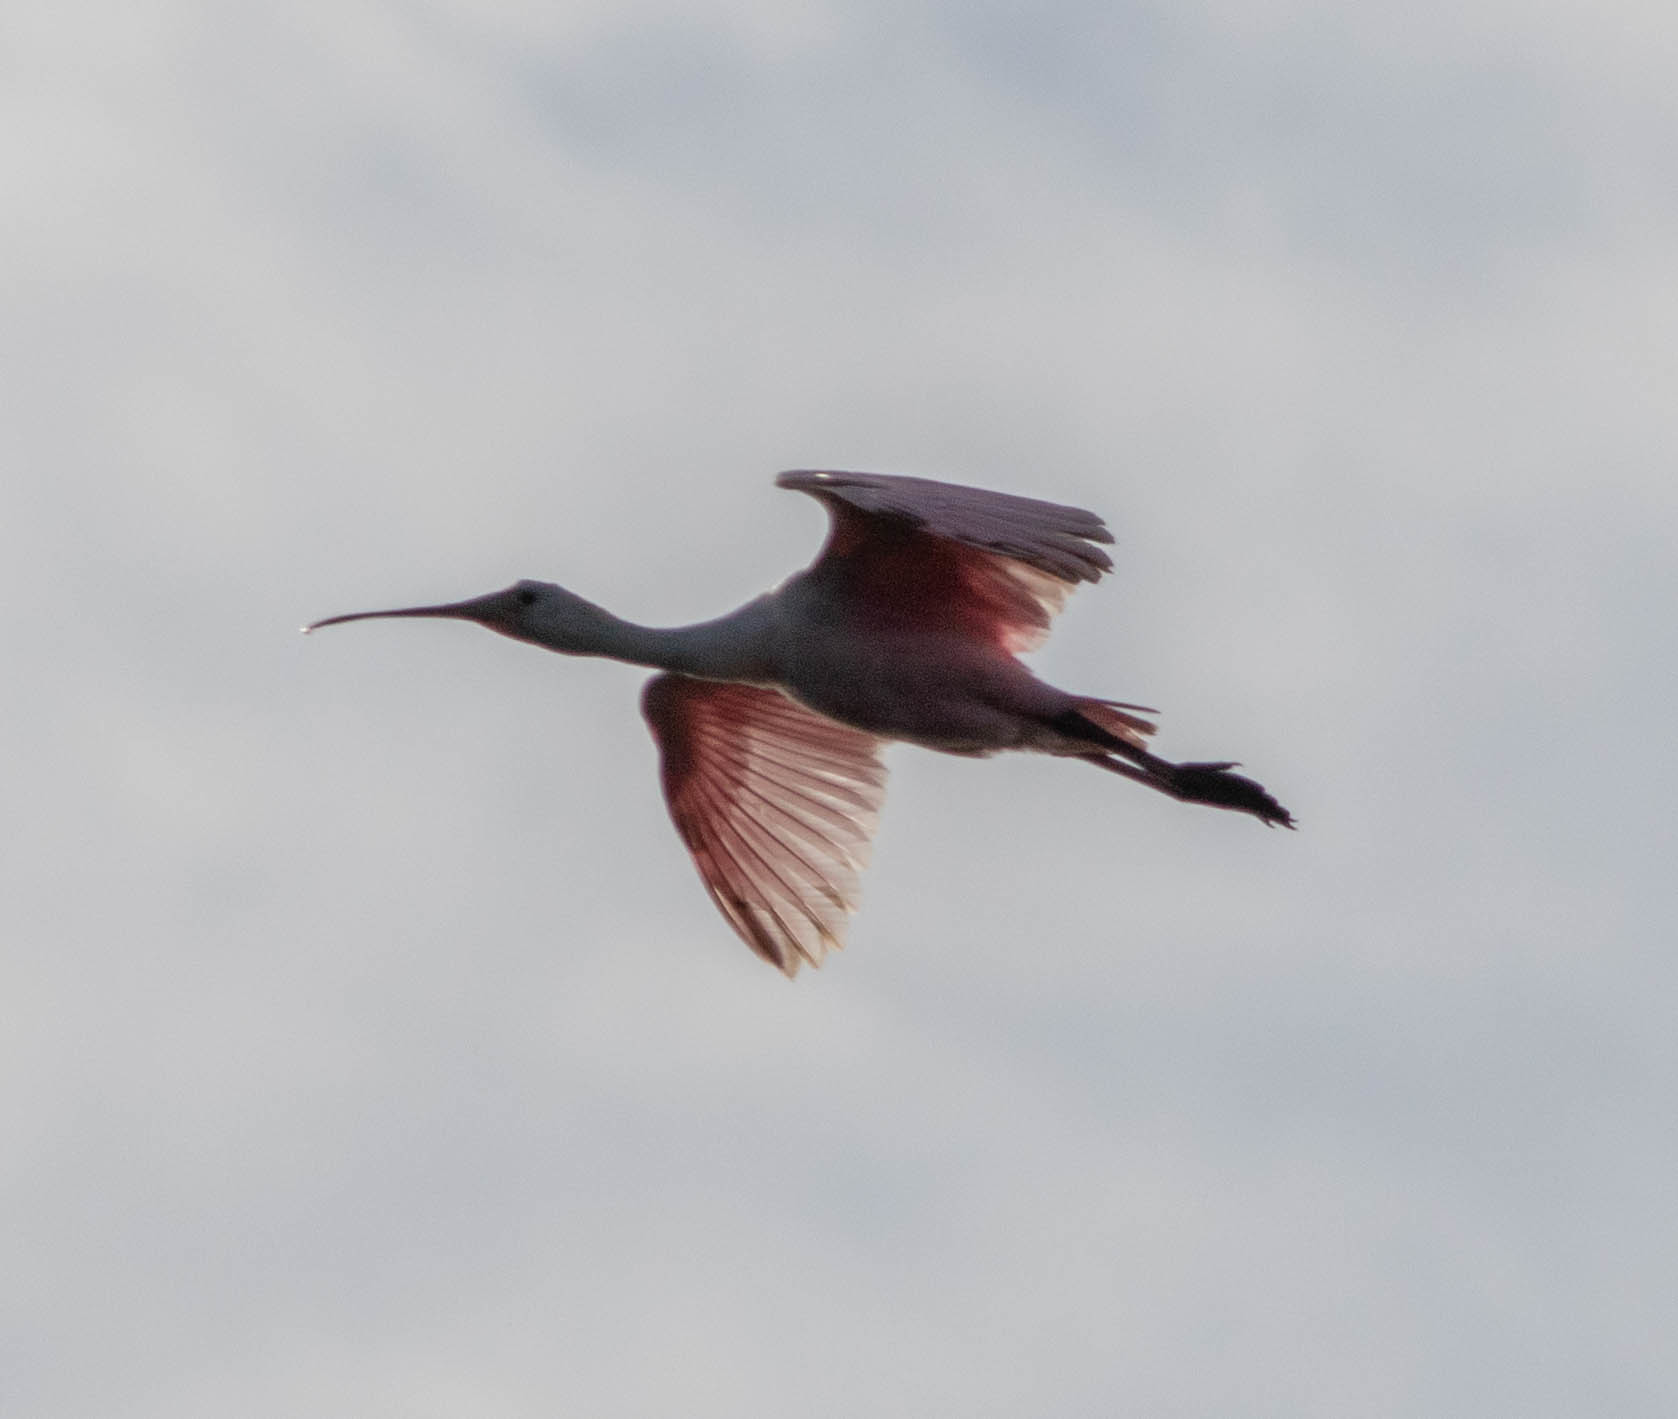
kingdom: Animalia
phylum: Chordata
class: Aves
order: Pelecaniformes
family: Threskiornithidae
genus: Platalea
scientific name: Platalea ajaja
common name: Roseate spoonbill
